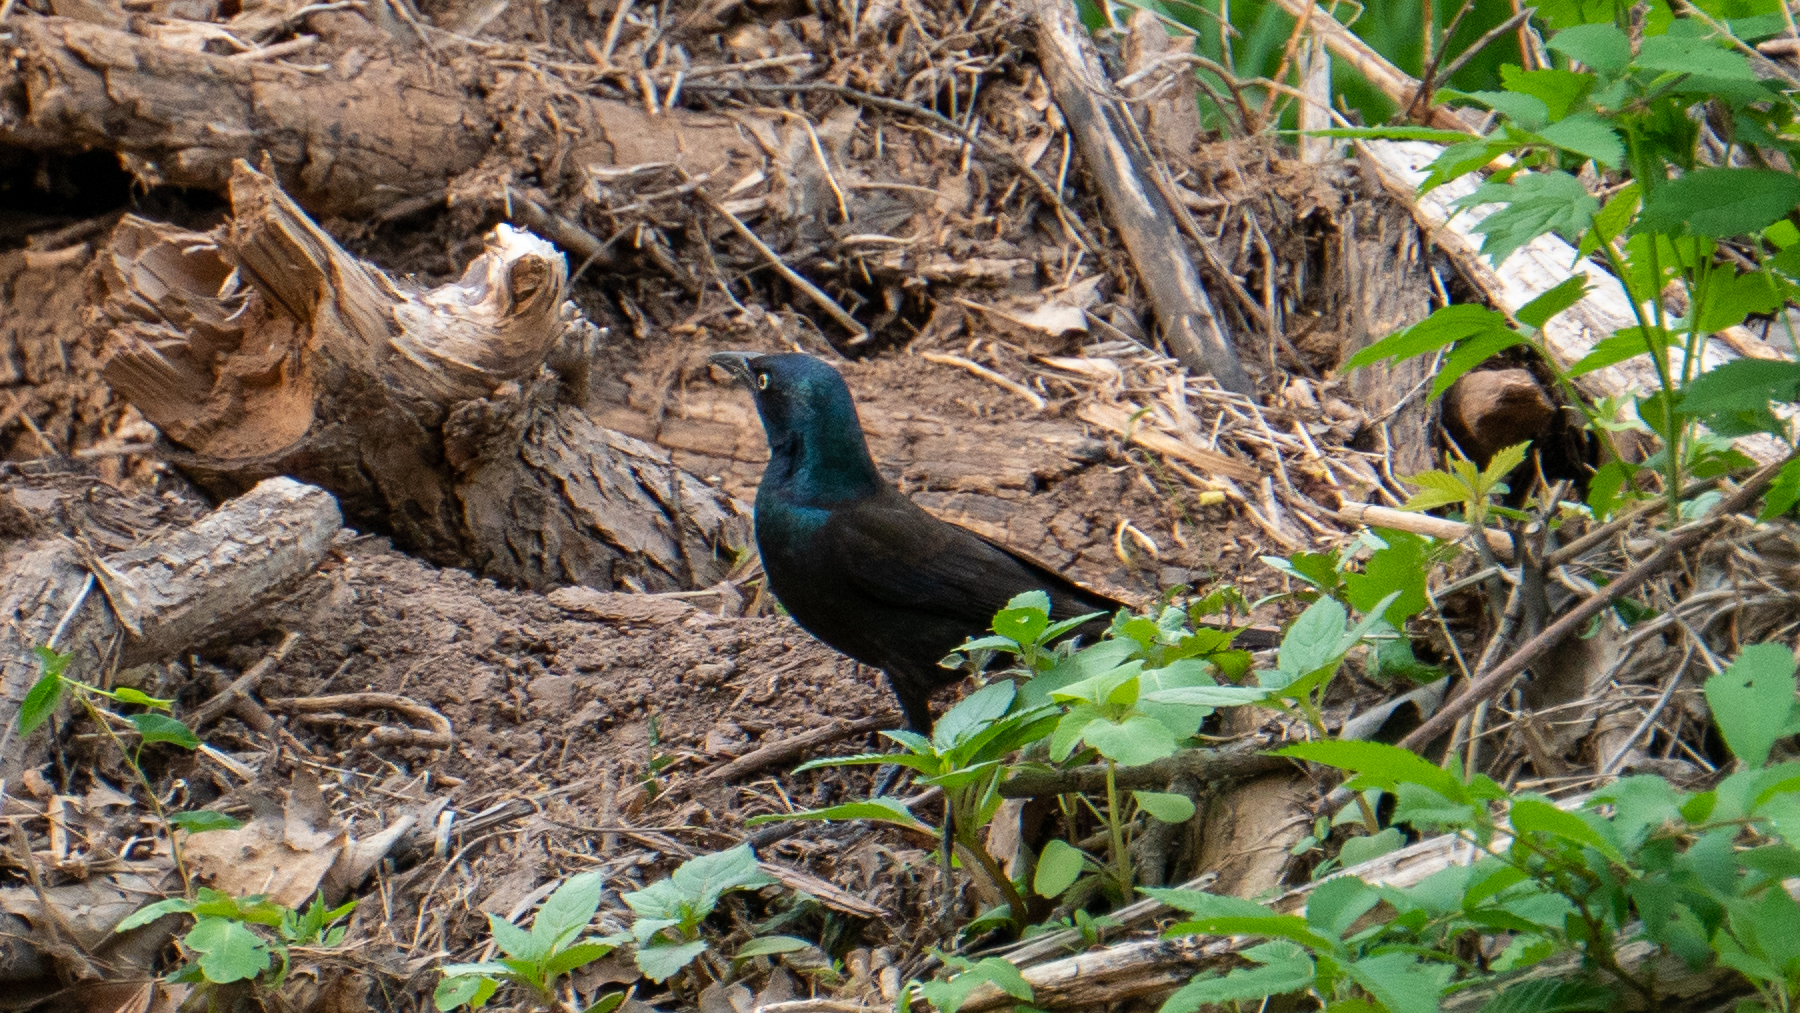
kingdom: Animalia
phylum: Chordata
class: Aves
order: Passeriformes
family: Icteridae
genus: Quiscalus
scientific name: Quiscalus quiscula
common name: Common grackle
